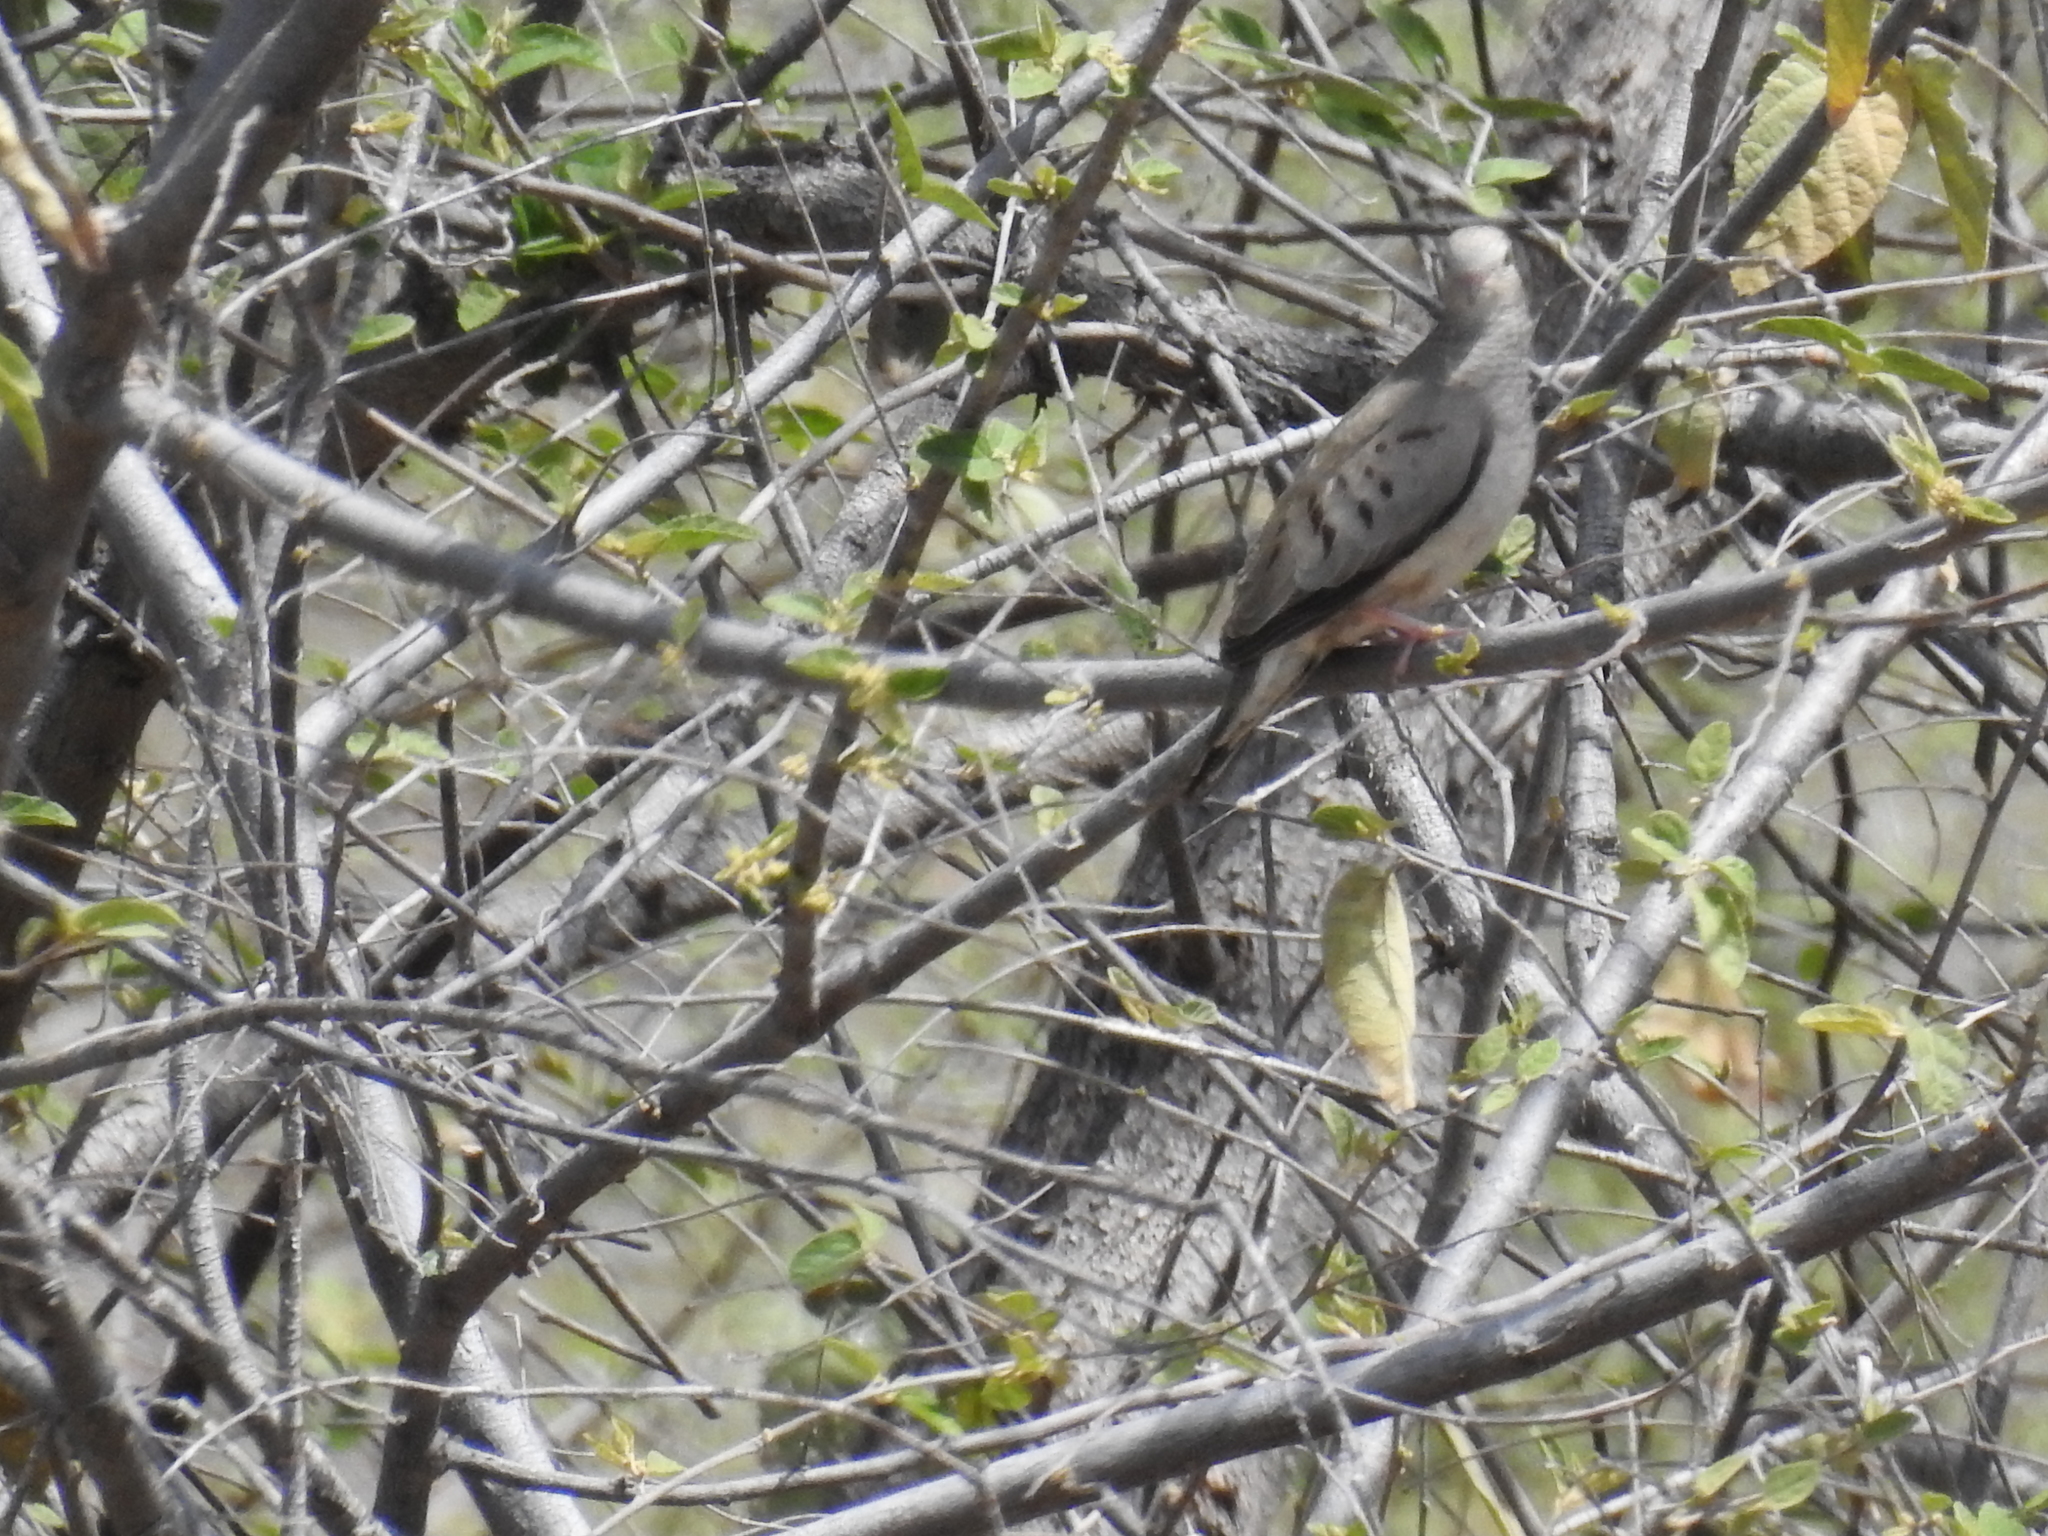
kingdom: Animalia
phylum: Chordata
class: Aves
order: Columbiformes
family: Columbidae
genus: Columbina
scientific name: Columbina passerina
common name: Common ground-dove
